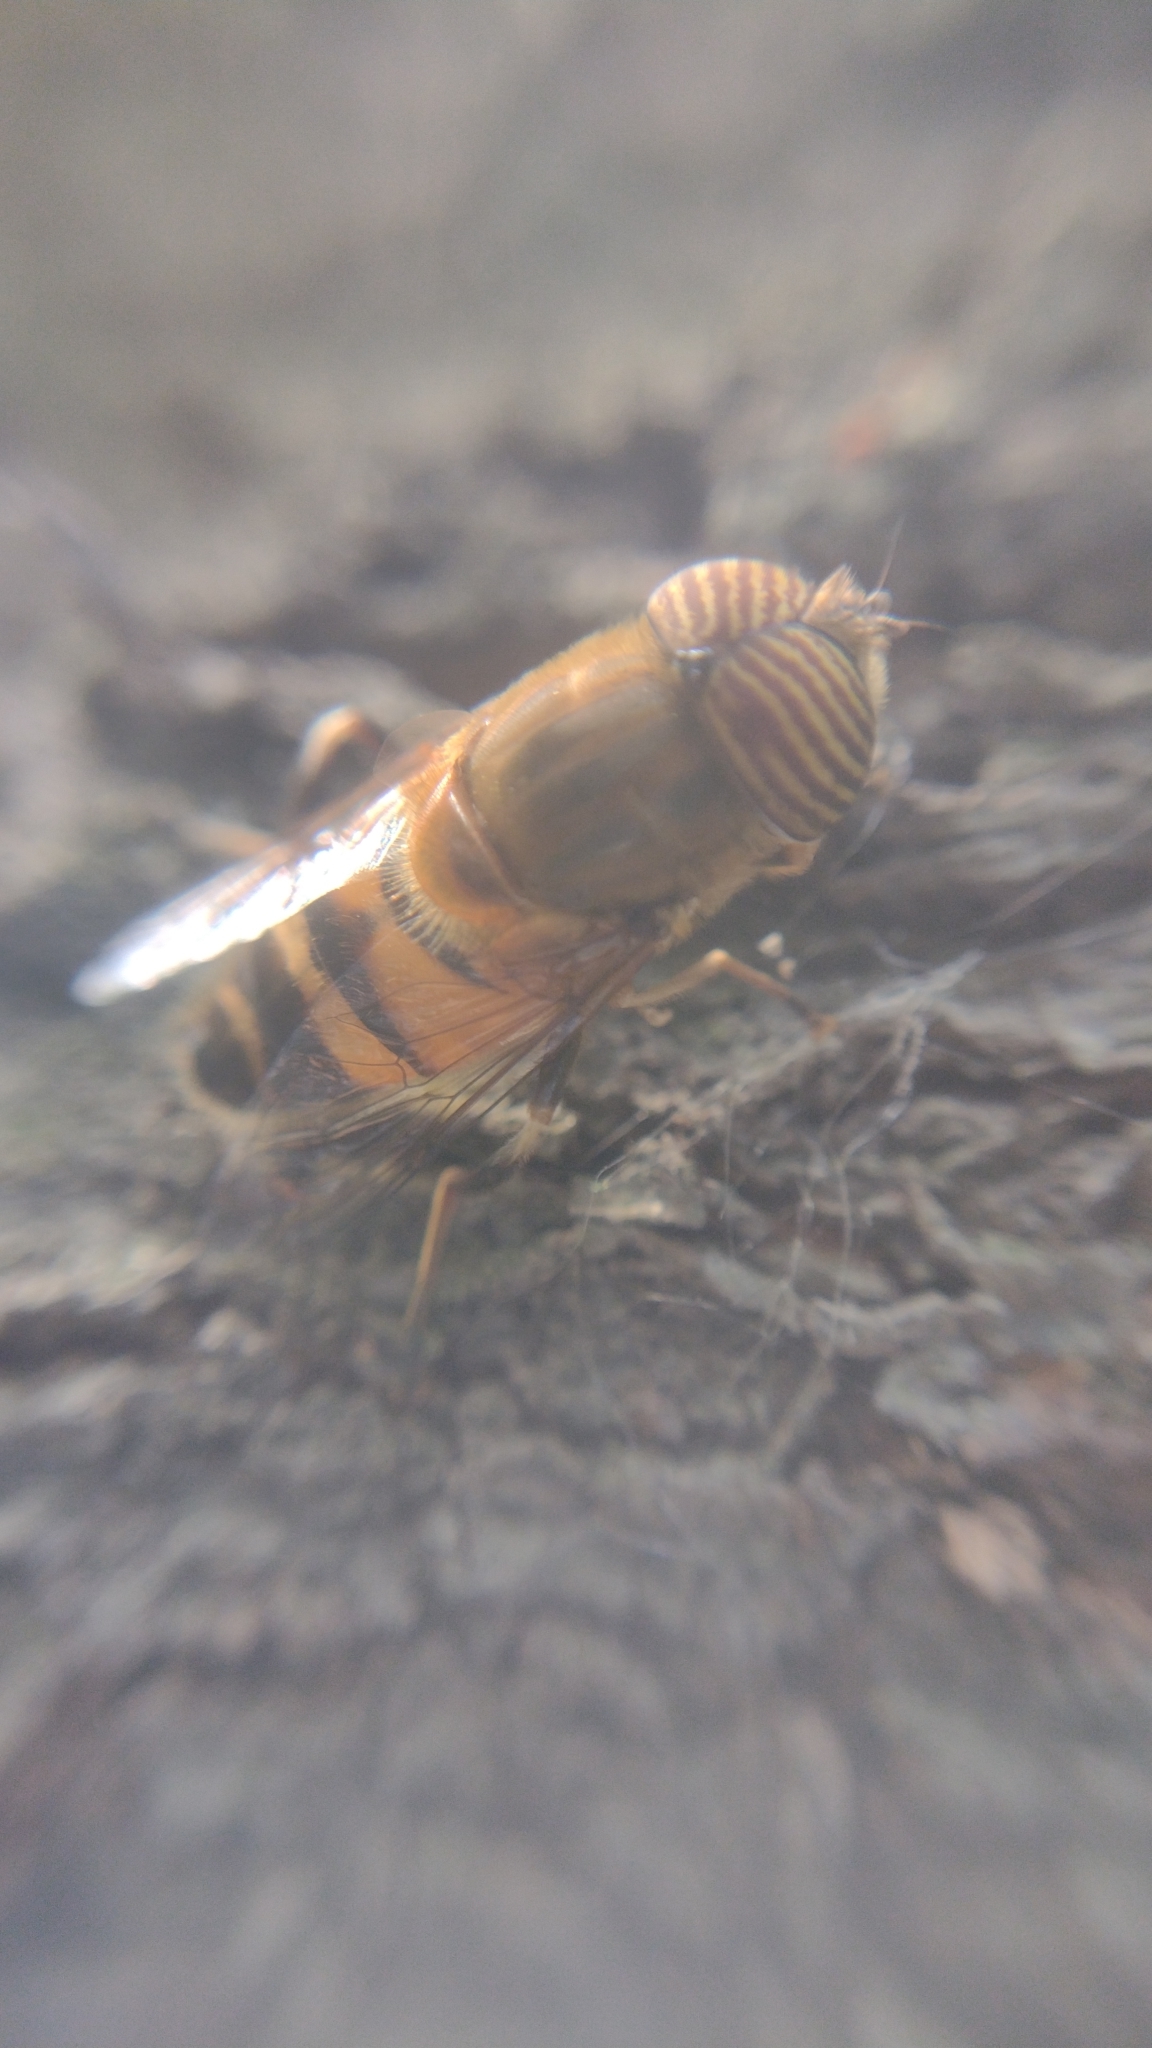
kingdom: Animalia
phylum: Arthropoda
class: Insecta
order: Diptera
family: Syrphidae
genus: Eristalinus
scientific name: Eristalinus taeniops
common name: Syrphid fly
